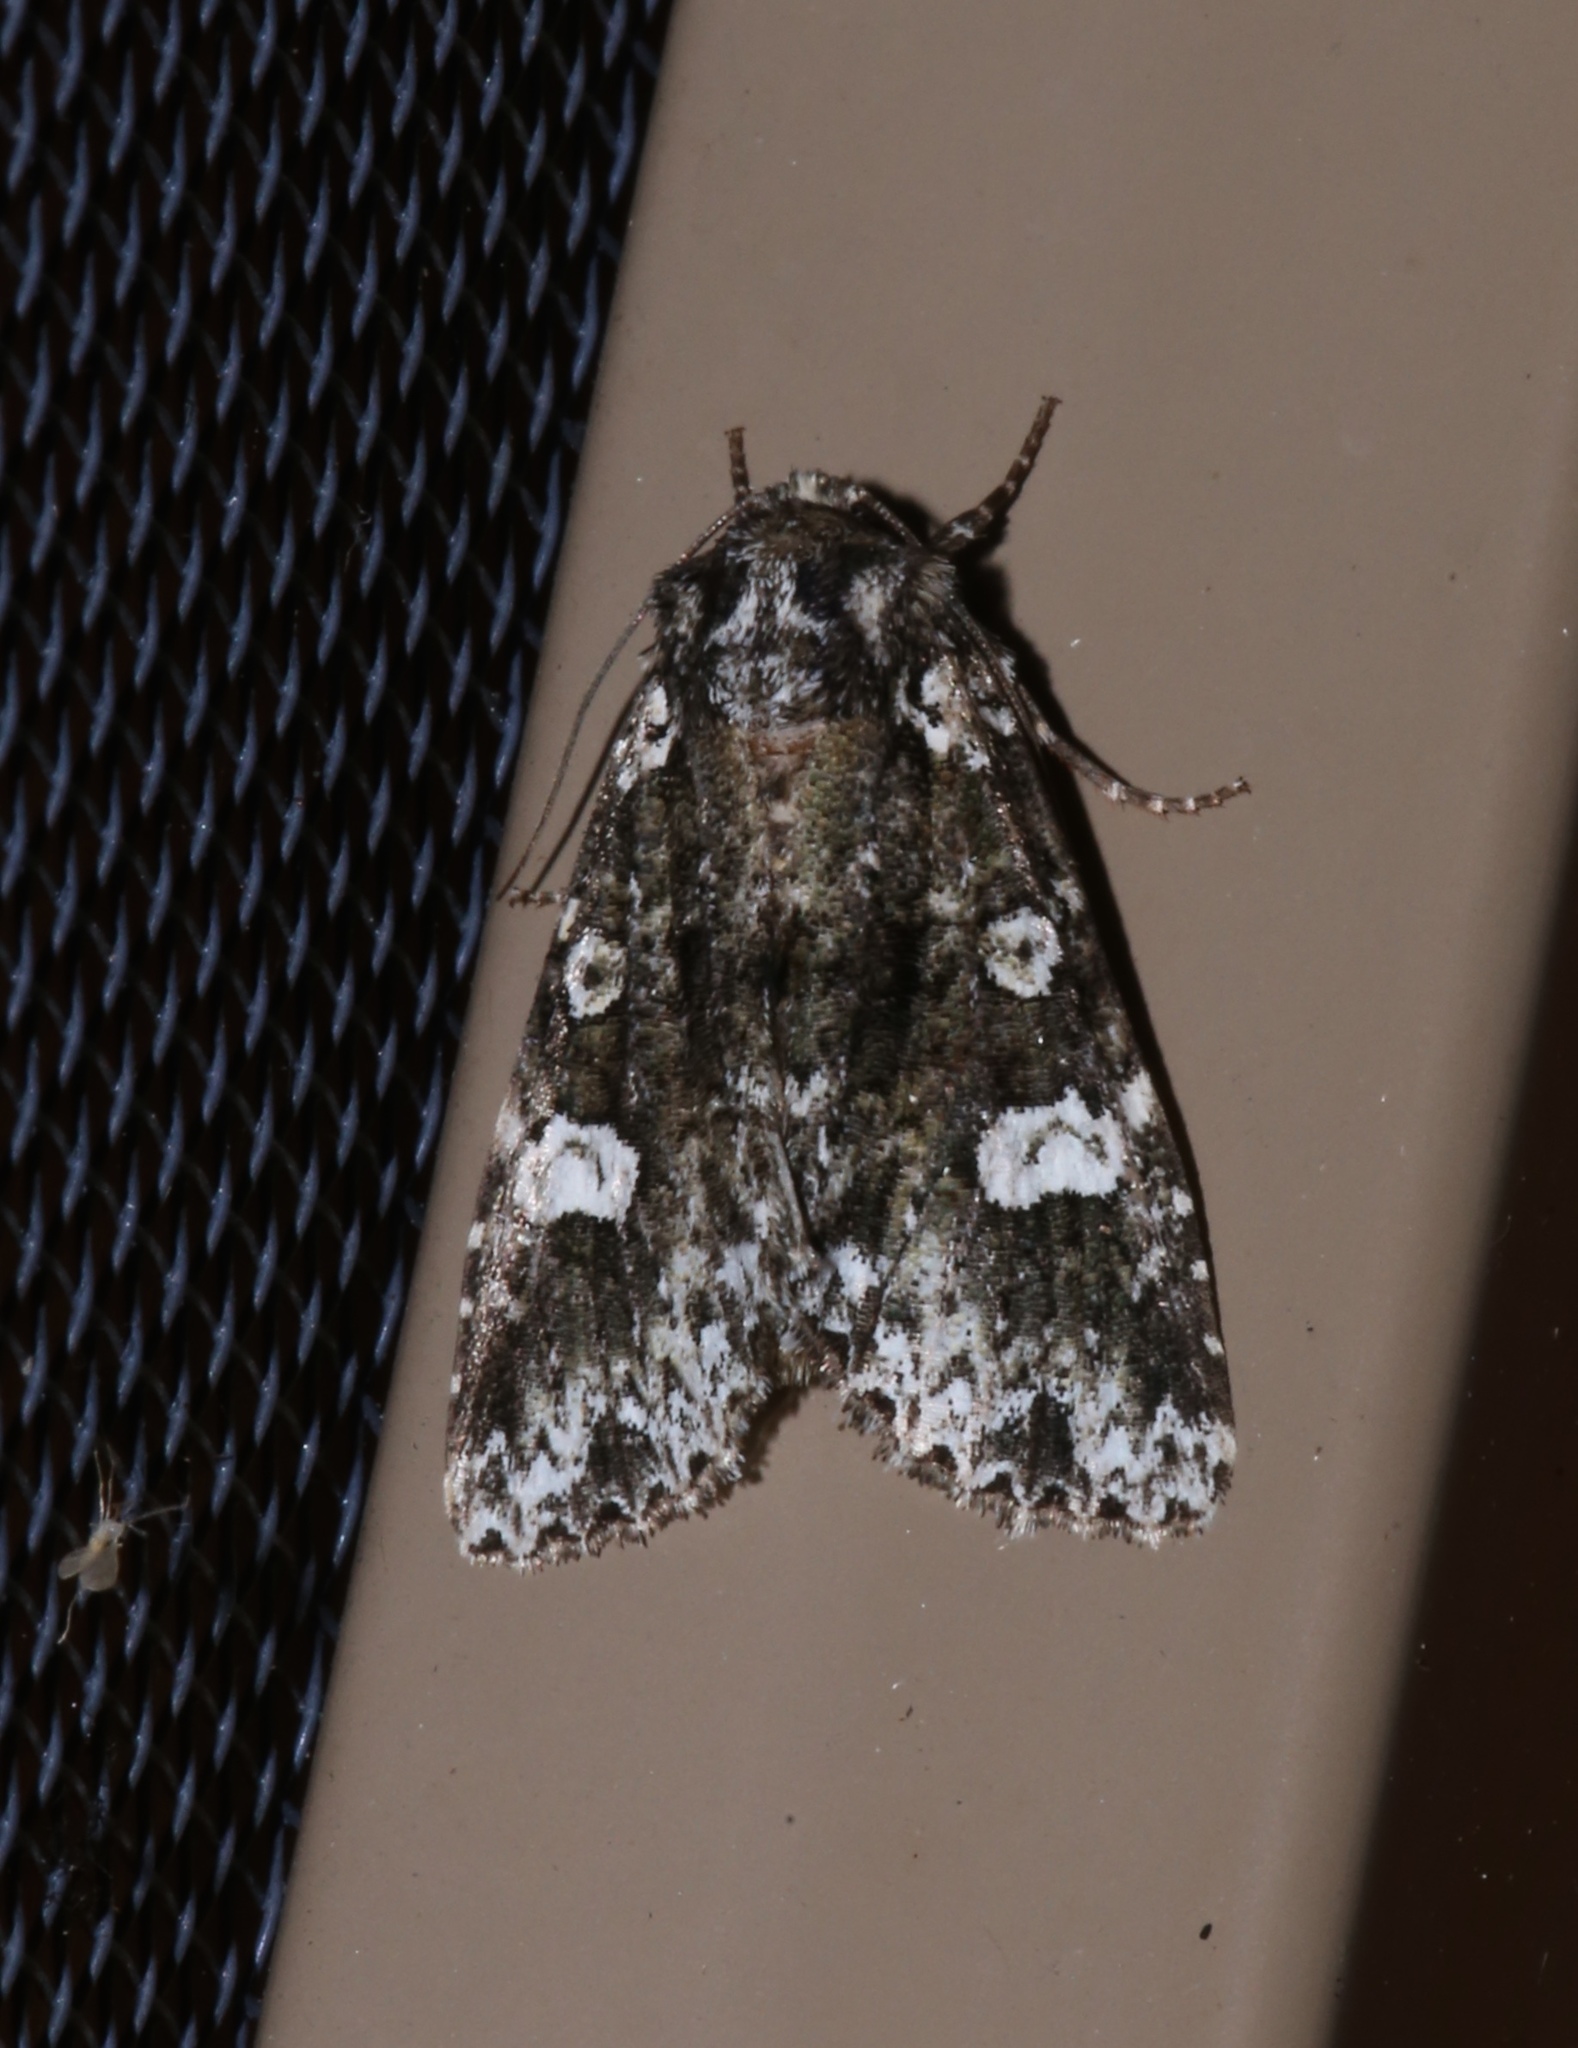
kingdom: Animalia
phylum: Arthropoda
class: Insecta
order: Lepidoptera
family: Noctuidae
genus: Melanchra
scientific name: Melanchra adjuncta
